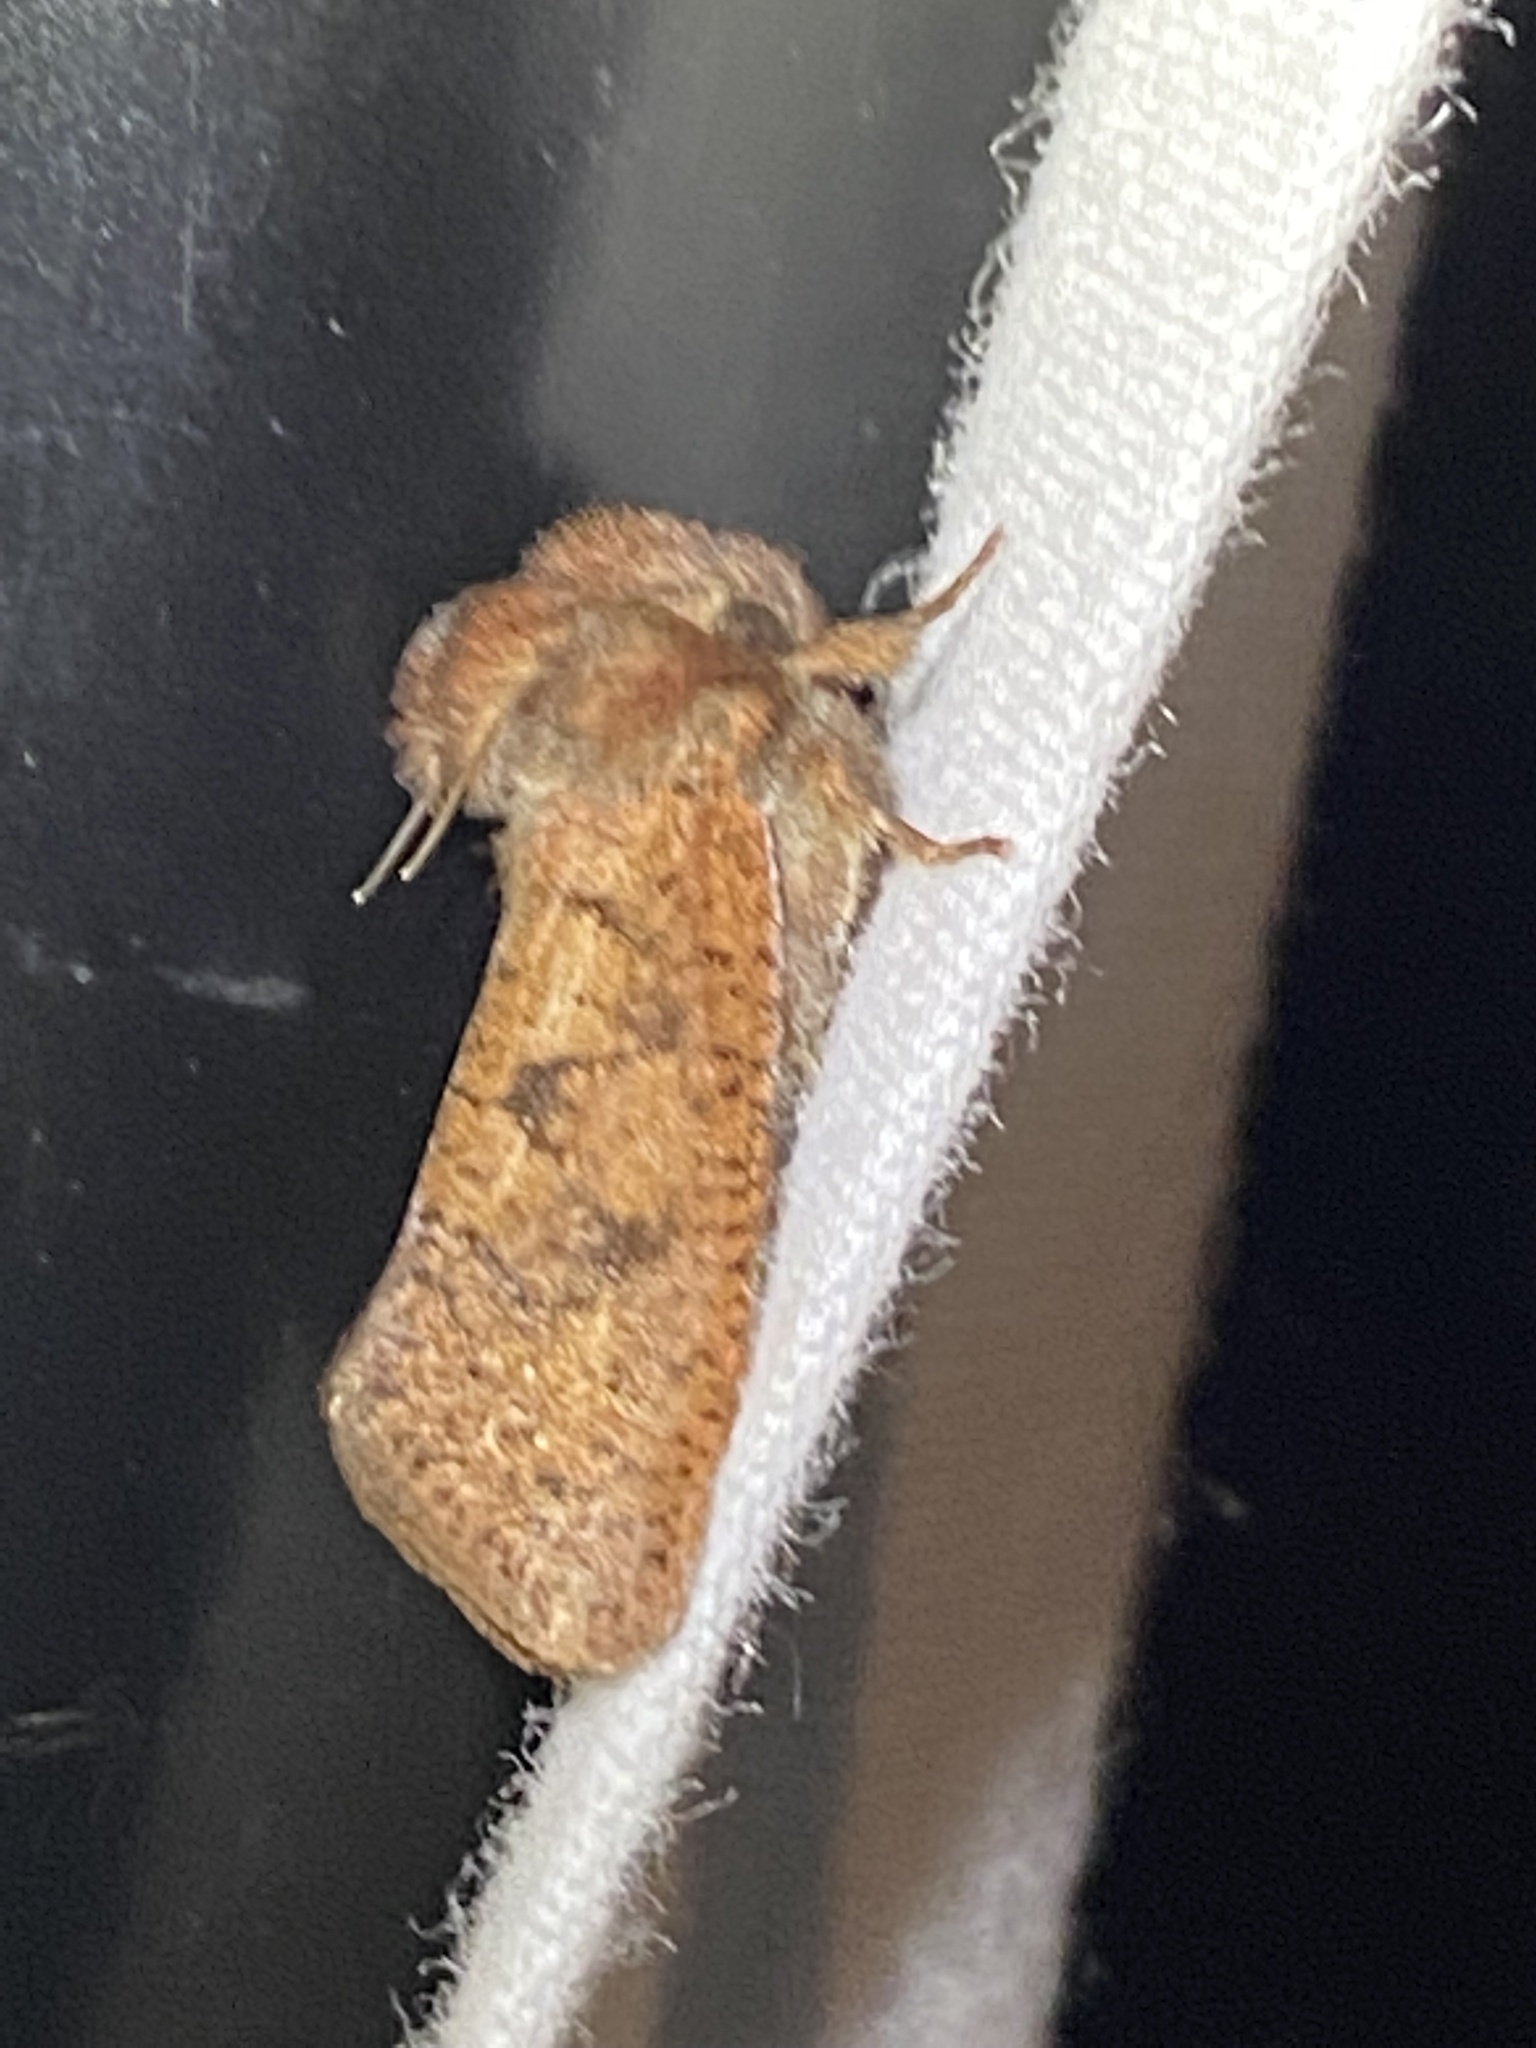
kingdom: Animalia
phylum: Arthropoda
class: Insecta
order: Lepidoptera
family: Tineidae
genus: Acrolophus
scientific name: Acrolophus plumifrontella
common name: Eastern grass tubeworm moth
